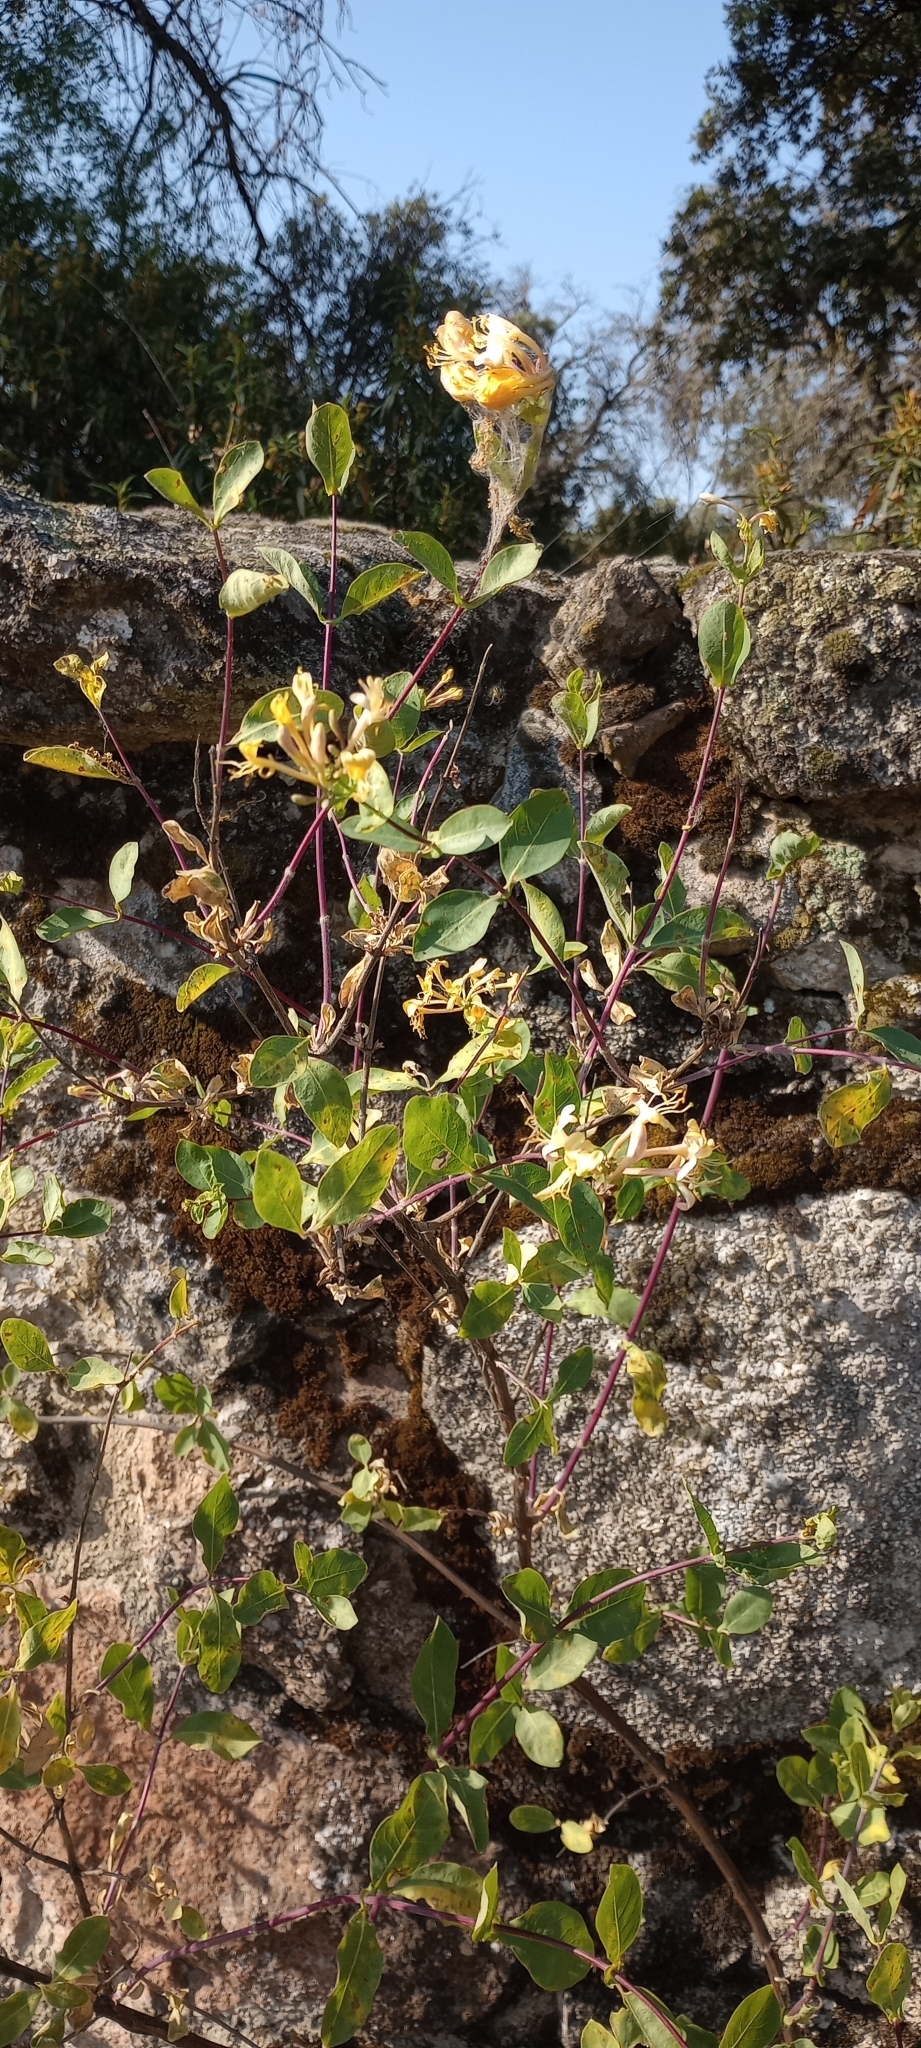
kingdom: Plantae
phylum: Tracheophyta
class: Magnoliopsida
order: Dipsacales
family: Caprifoliaceae
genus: Lonicera
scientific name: Lonicera etrusca
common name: Etruscan honeysuckle
